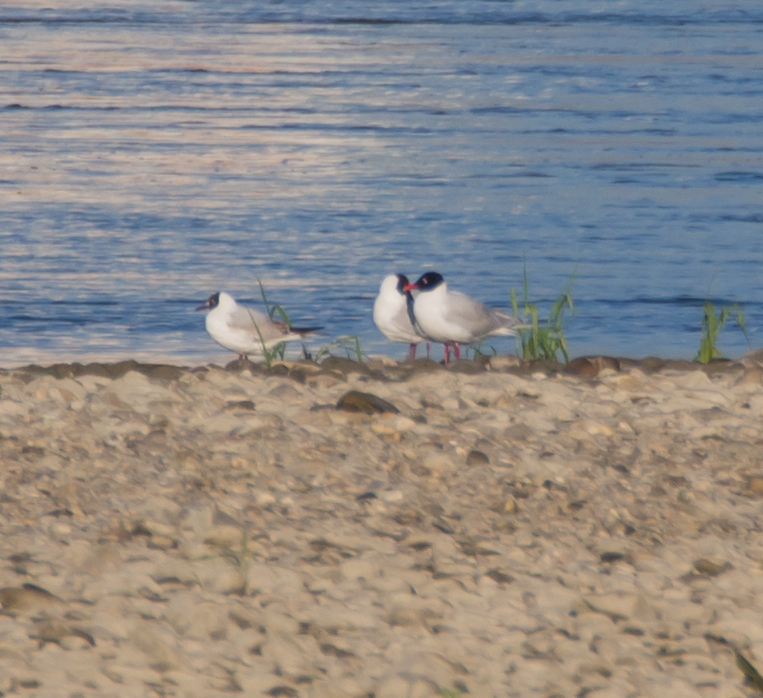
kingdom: Animalia
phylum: Chordata
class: Aves
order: Charadriiformes
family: Laridae
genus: Ichthyaetus
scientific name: Ichthyaetus melanocephalus
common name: Mediterranean gull
